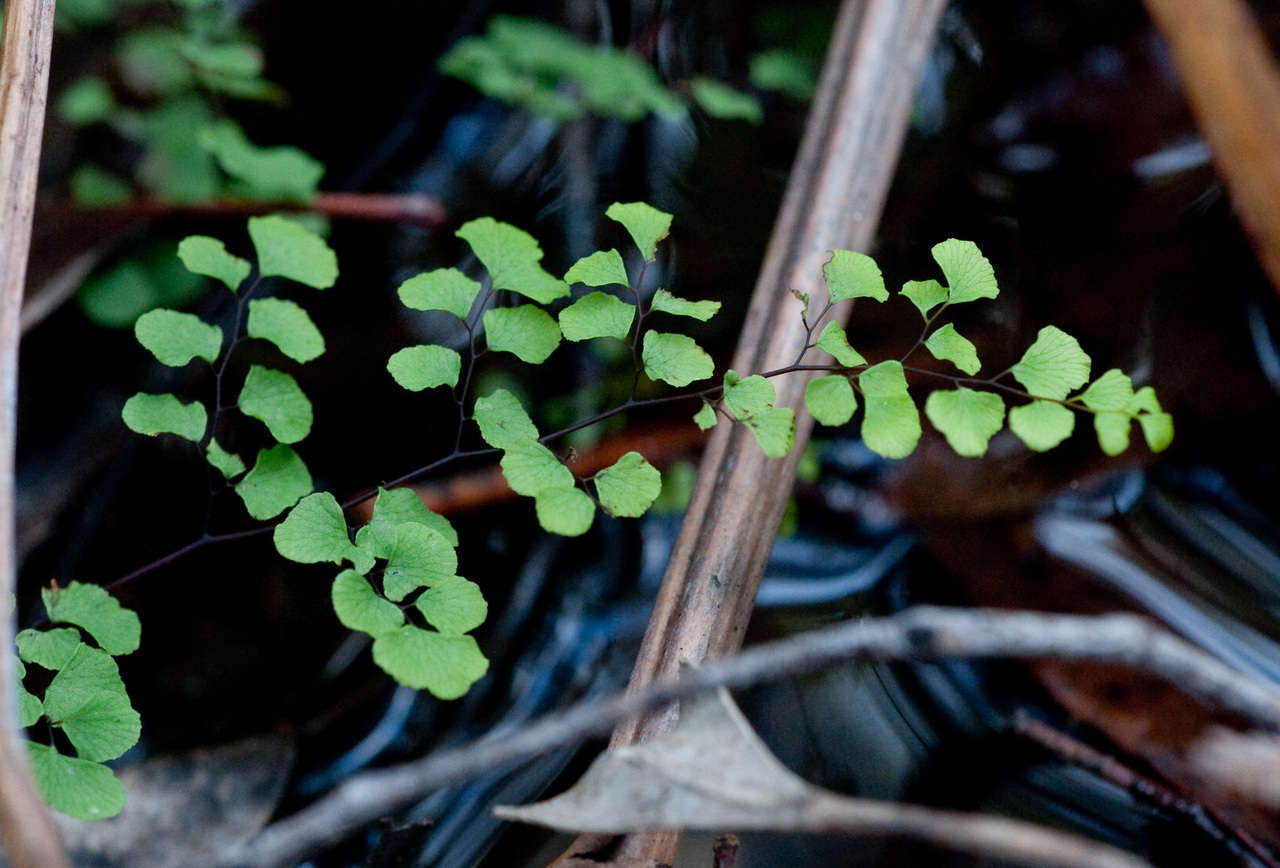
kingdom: Plantae
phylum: Tracheophyta
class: Polypodiopsida
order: Polypodiales
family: Pteridaceae
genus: Adiantum
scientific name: Adiantum aethiopicum
